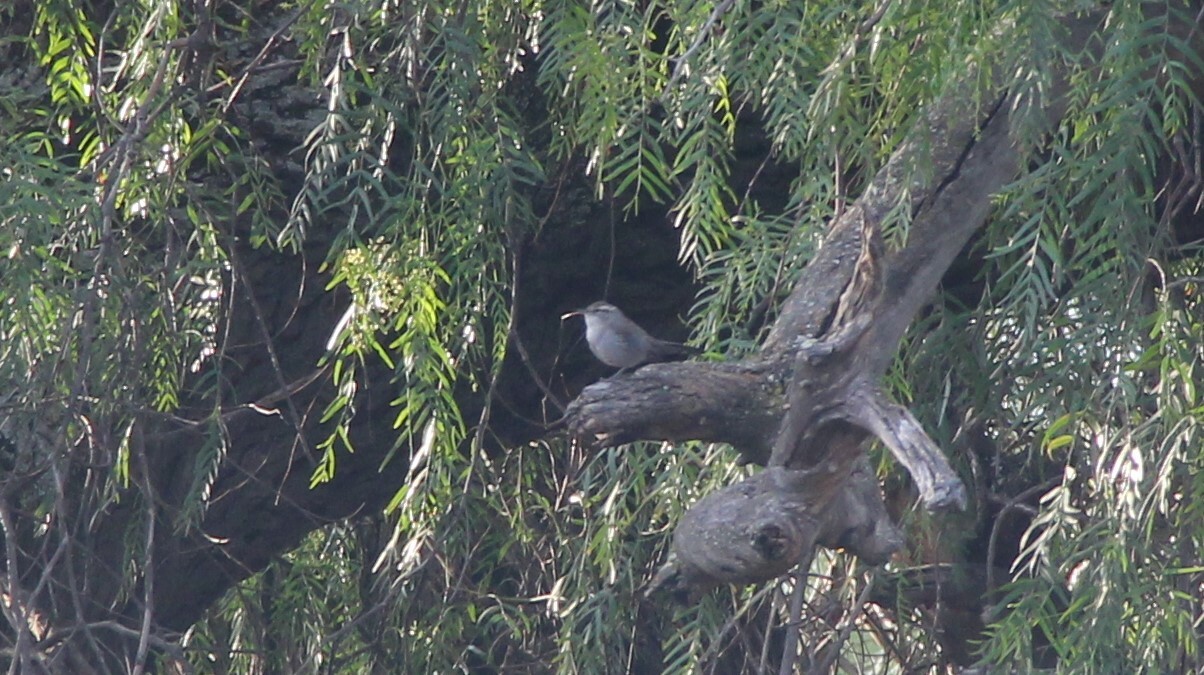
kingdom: Animalia
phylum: Chordata
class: Aves
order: Passeriformes
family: Troglodytidae
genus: Thryomanes
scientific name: Thryomanes bewickii
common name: Bewick's wren
